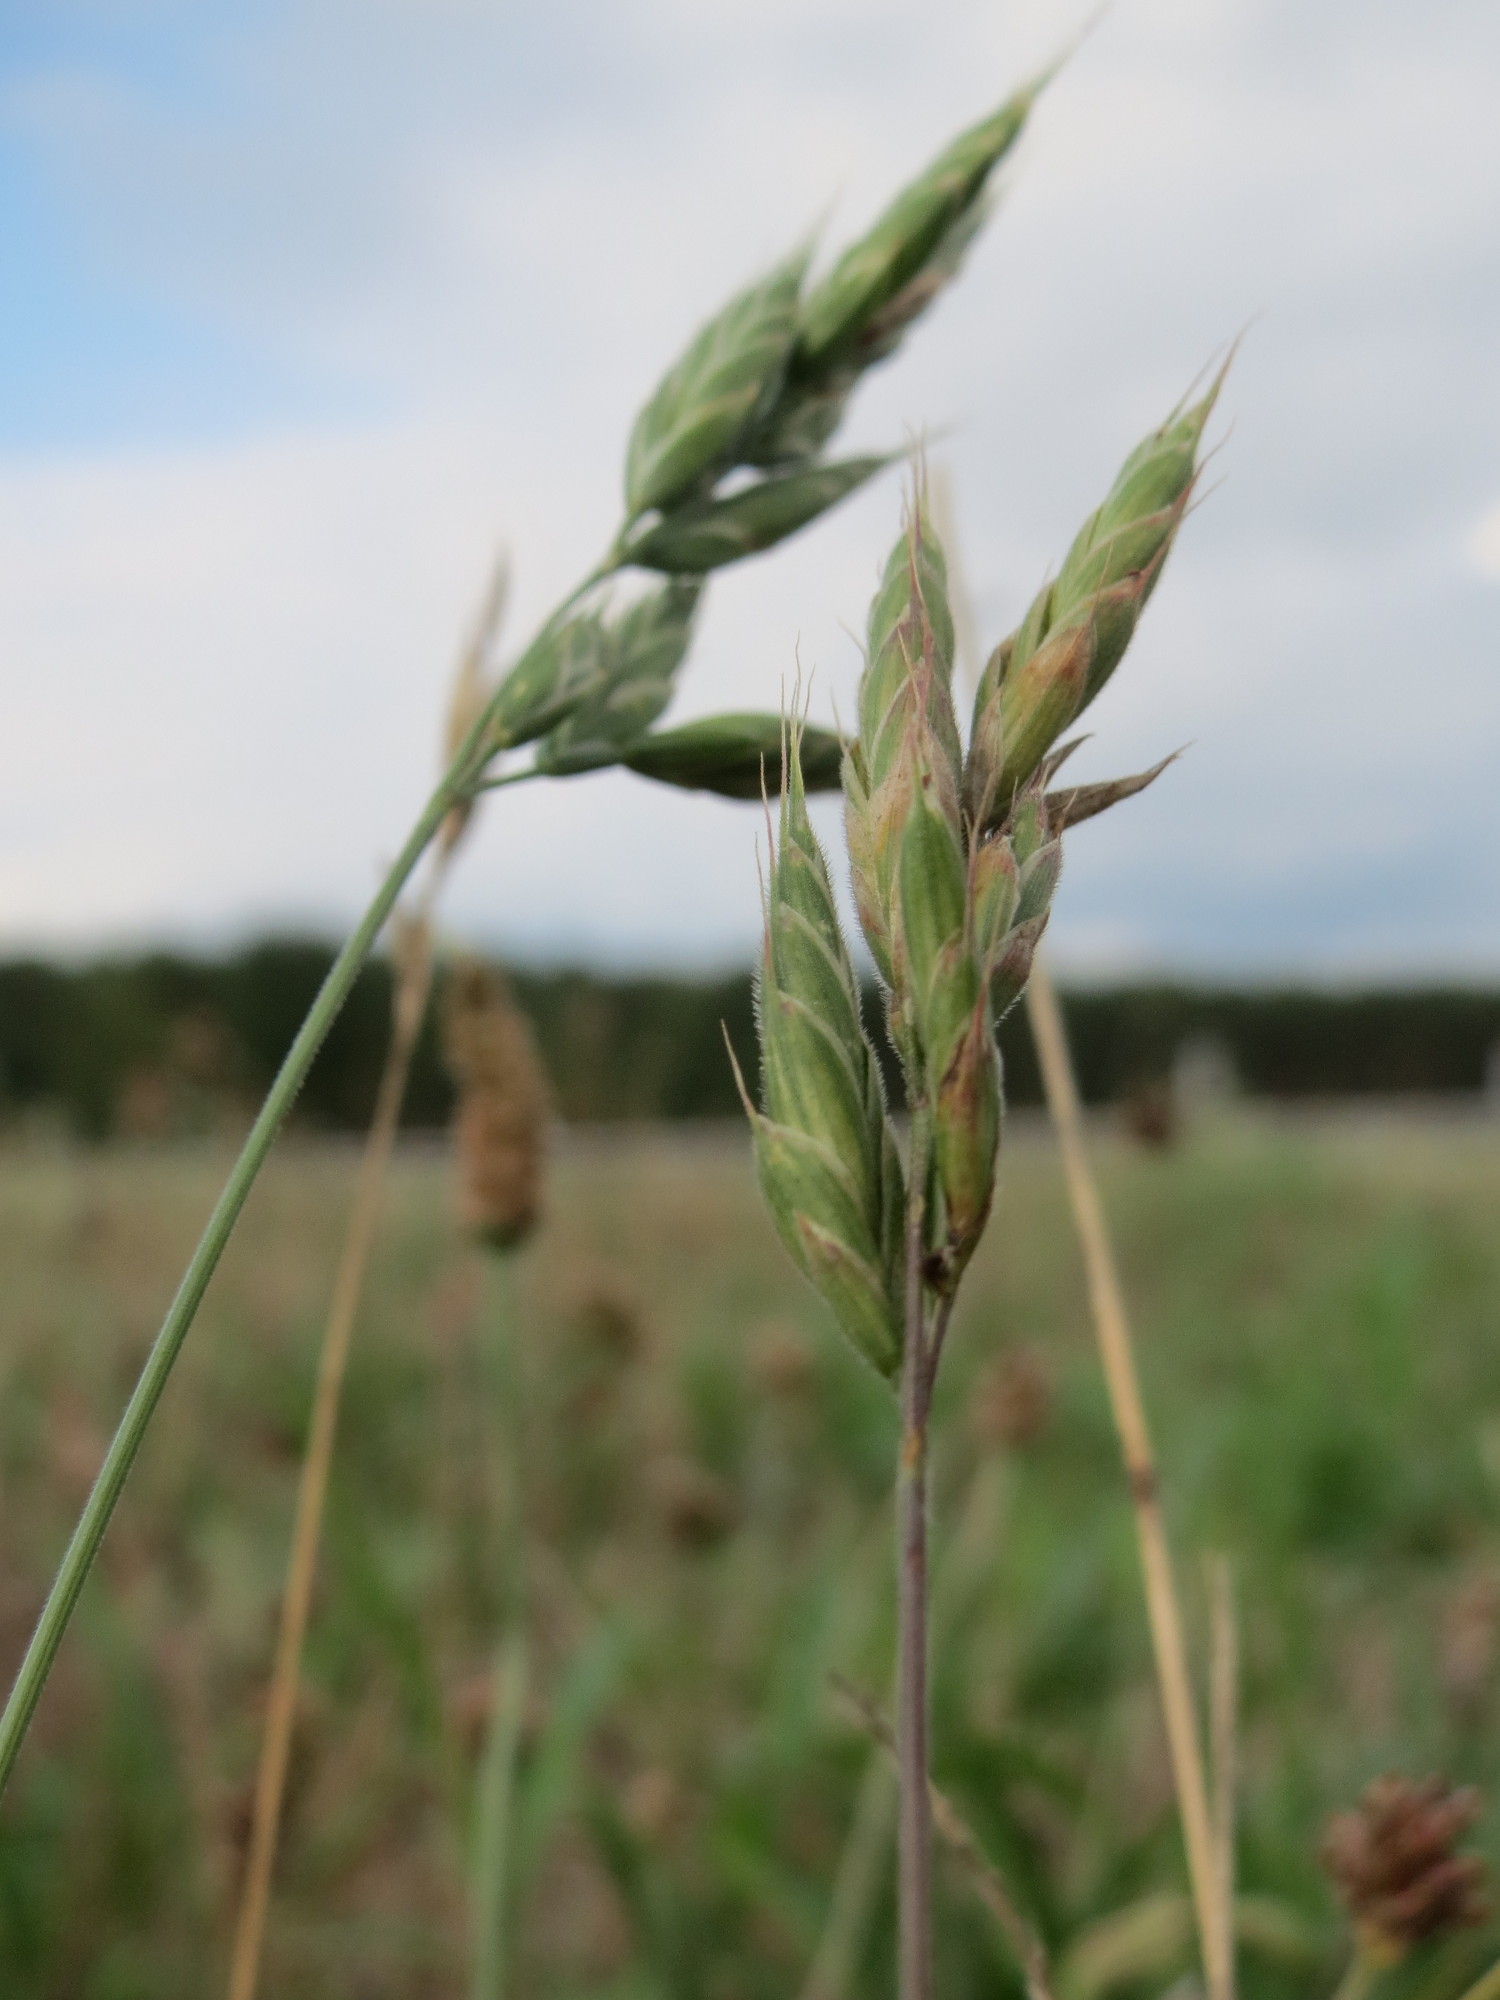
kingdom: Plantae
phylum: Tracheophyta
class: Liliopsida
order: Poales
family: Poaceae
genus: Bromus
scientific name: Bromus hordeaceus
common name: Soft brome
